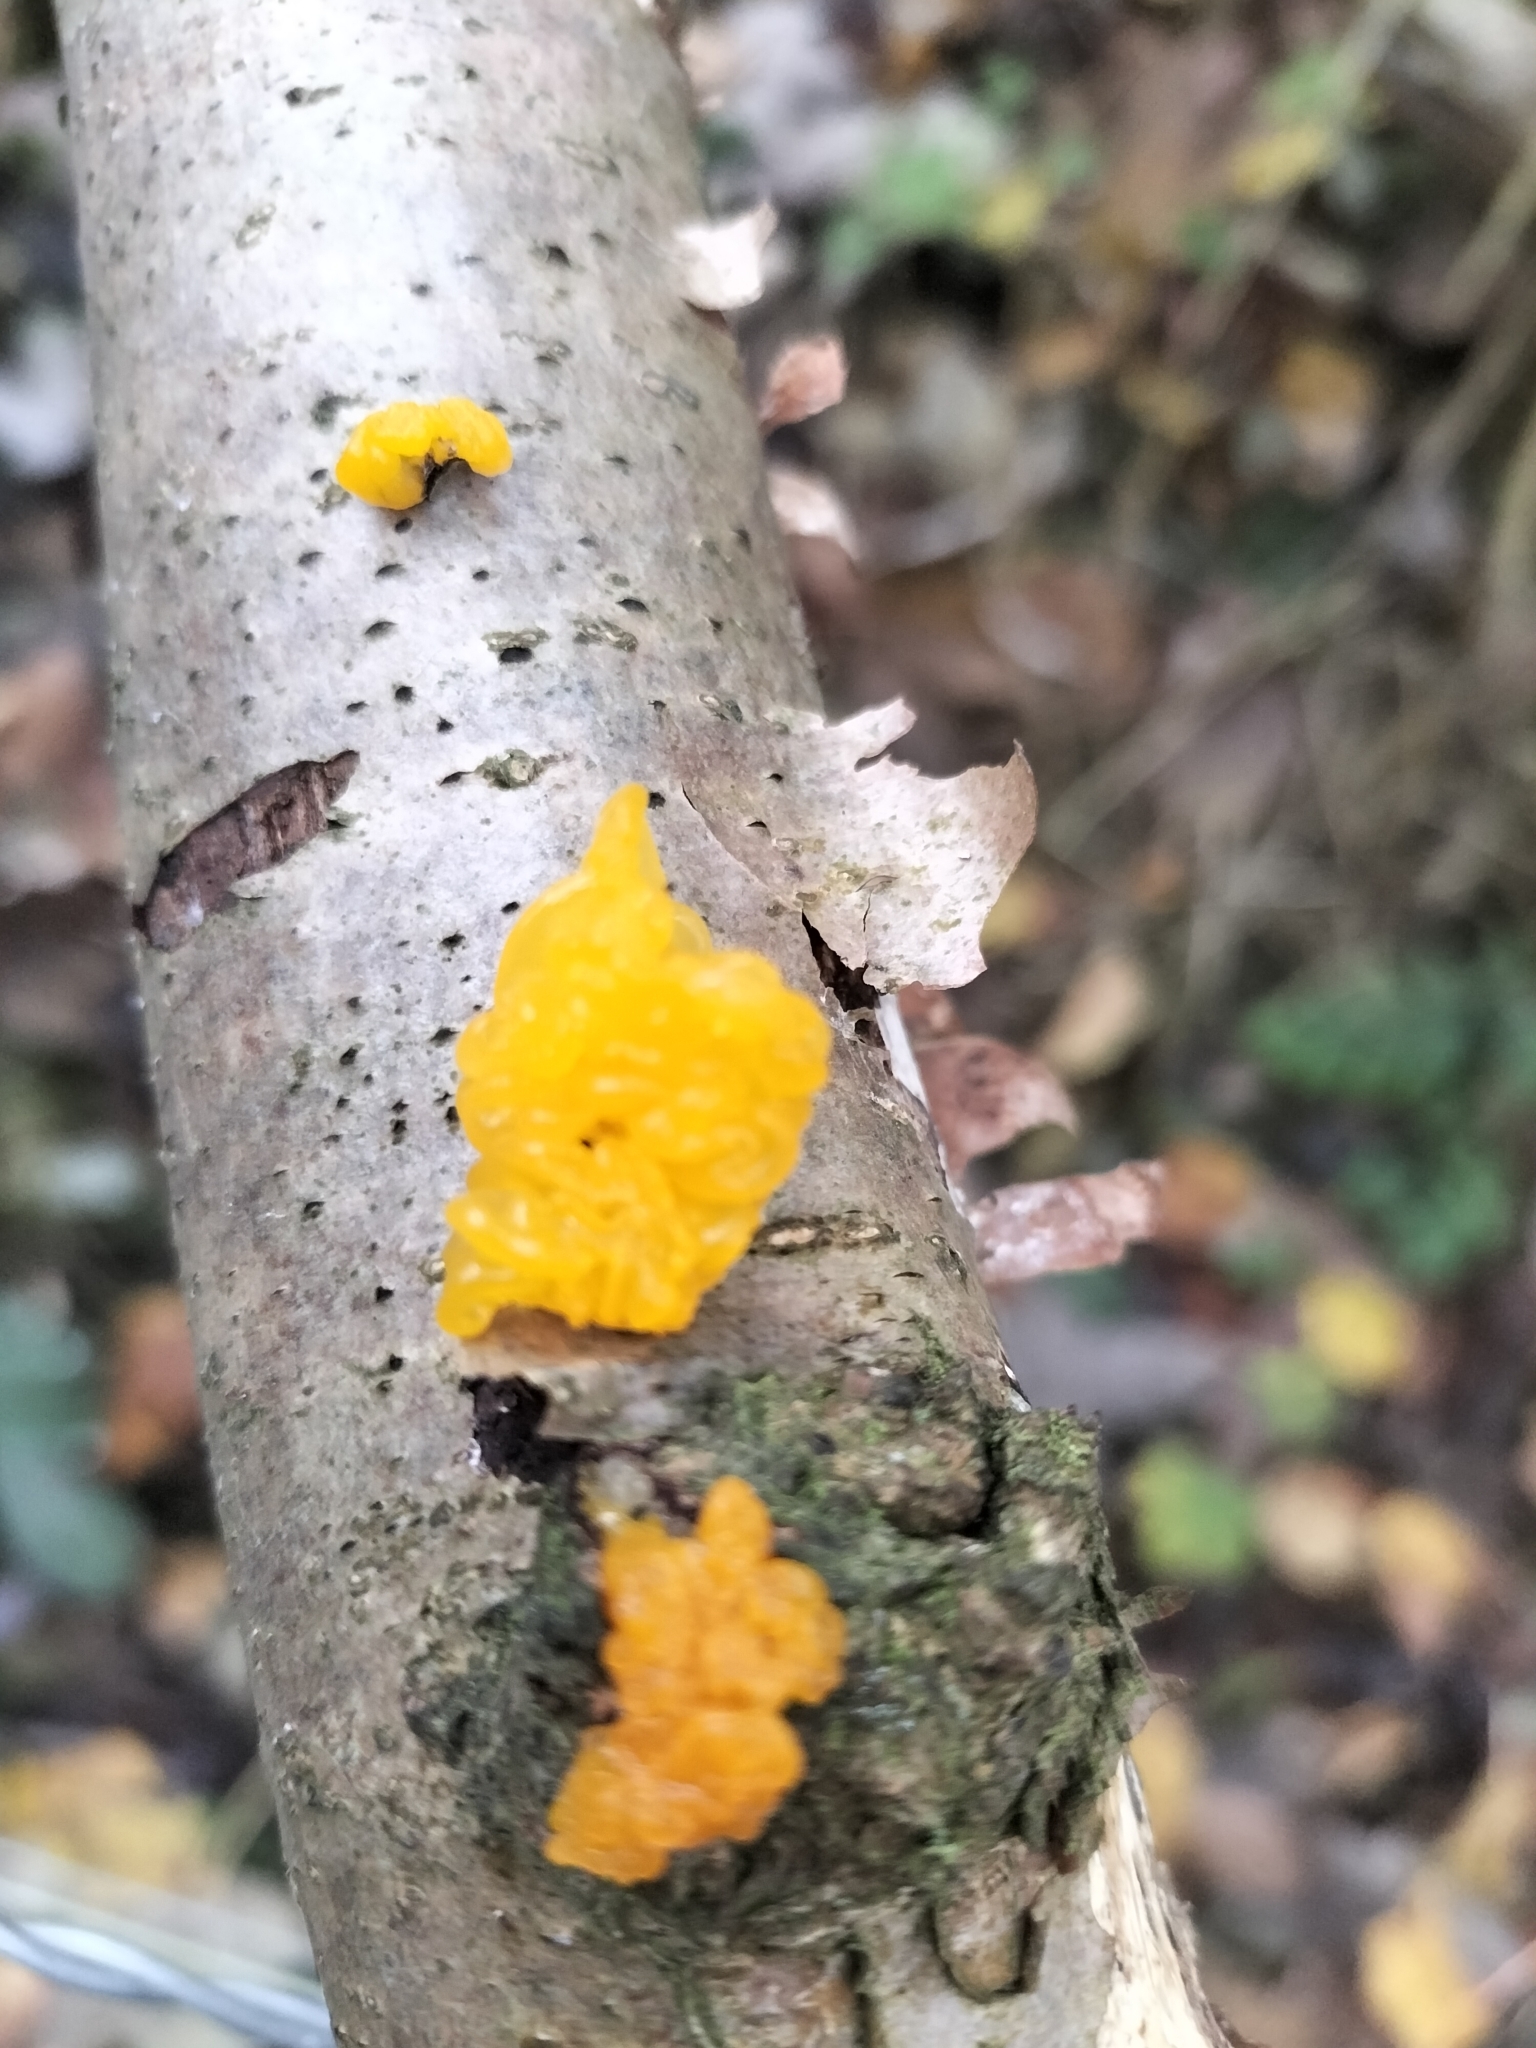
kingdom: Fungi
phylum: Basidiomycota
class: Tremellomycetes
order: Tremellales
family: Tremellaceae
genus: Tremella
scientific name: Tremella mesenterica
